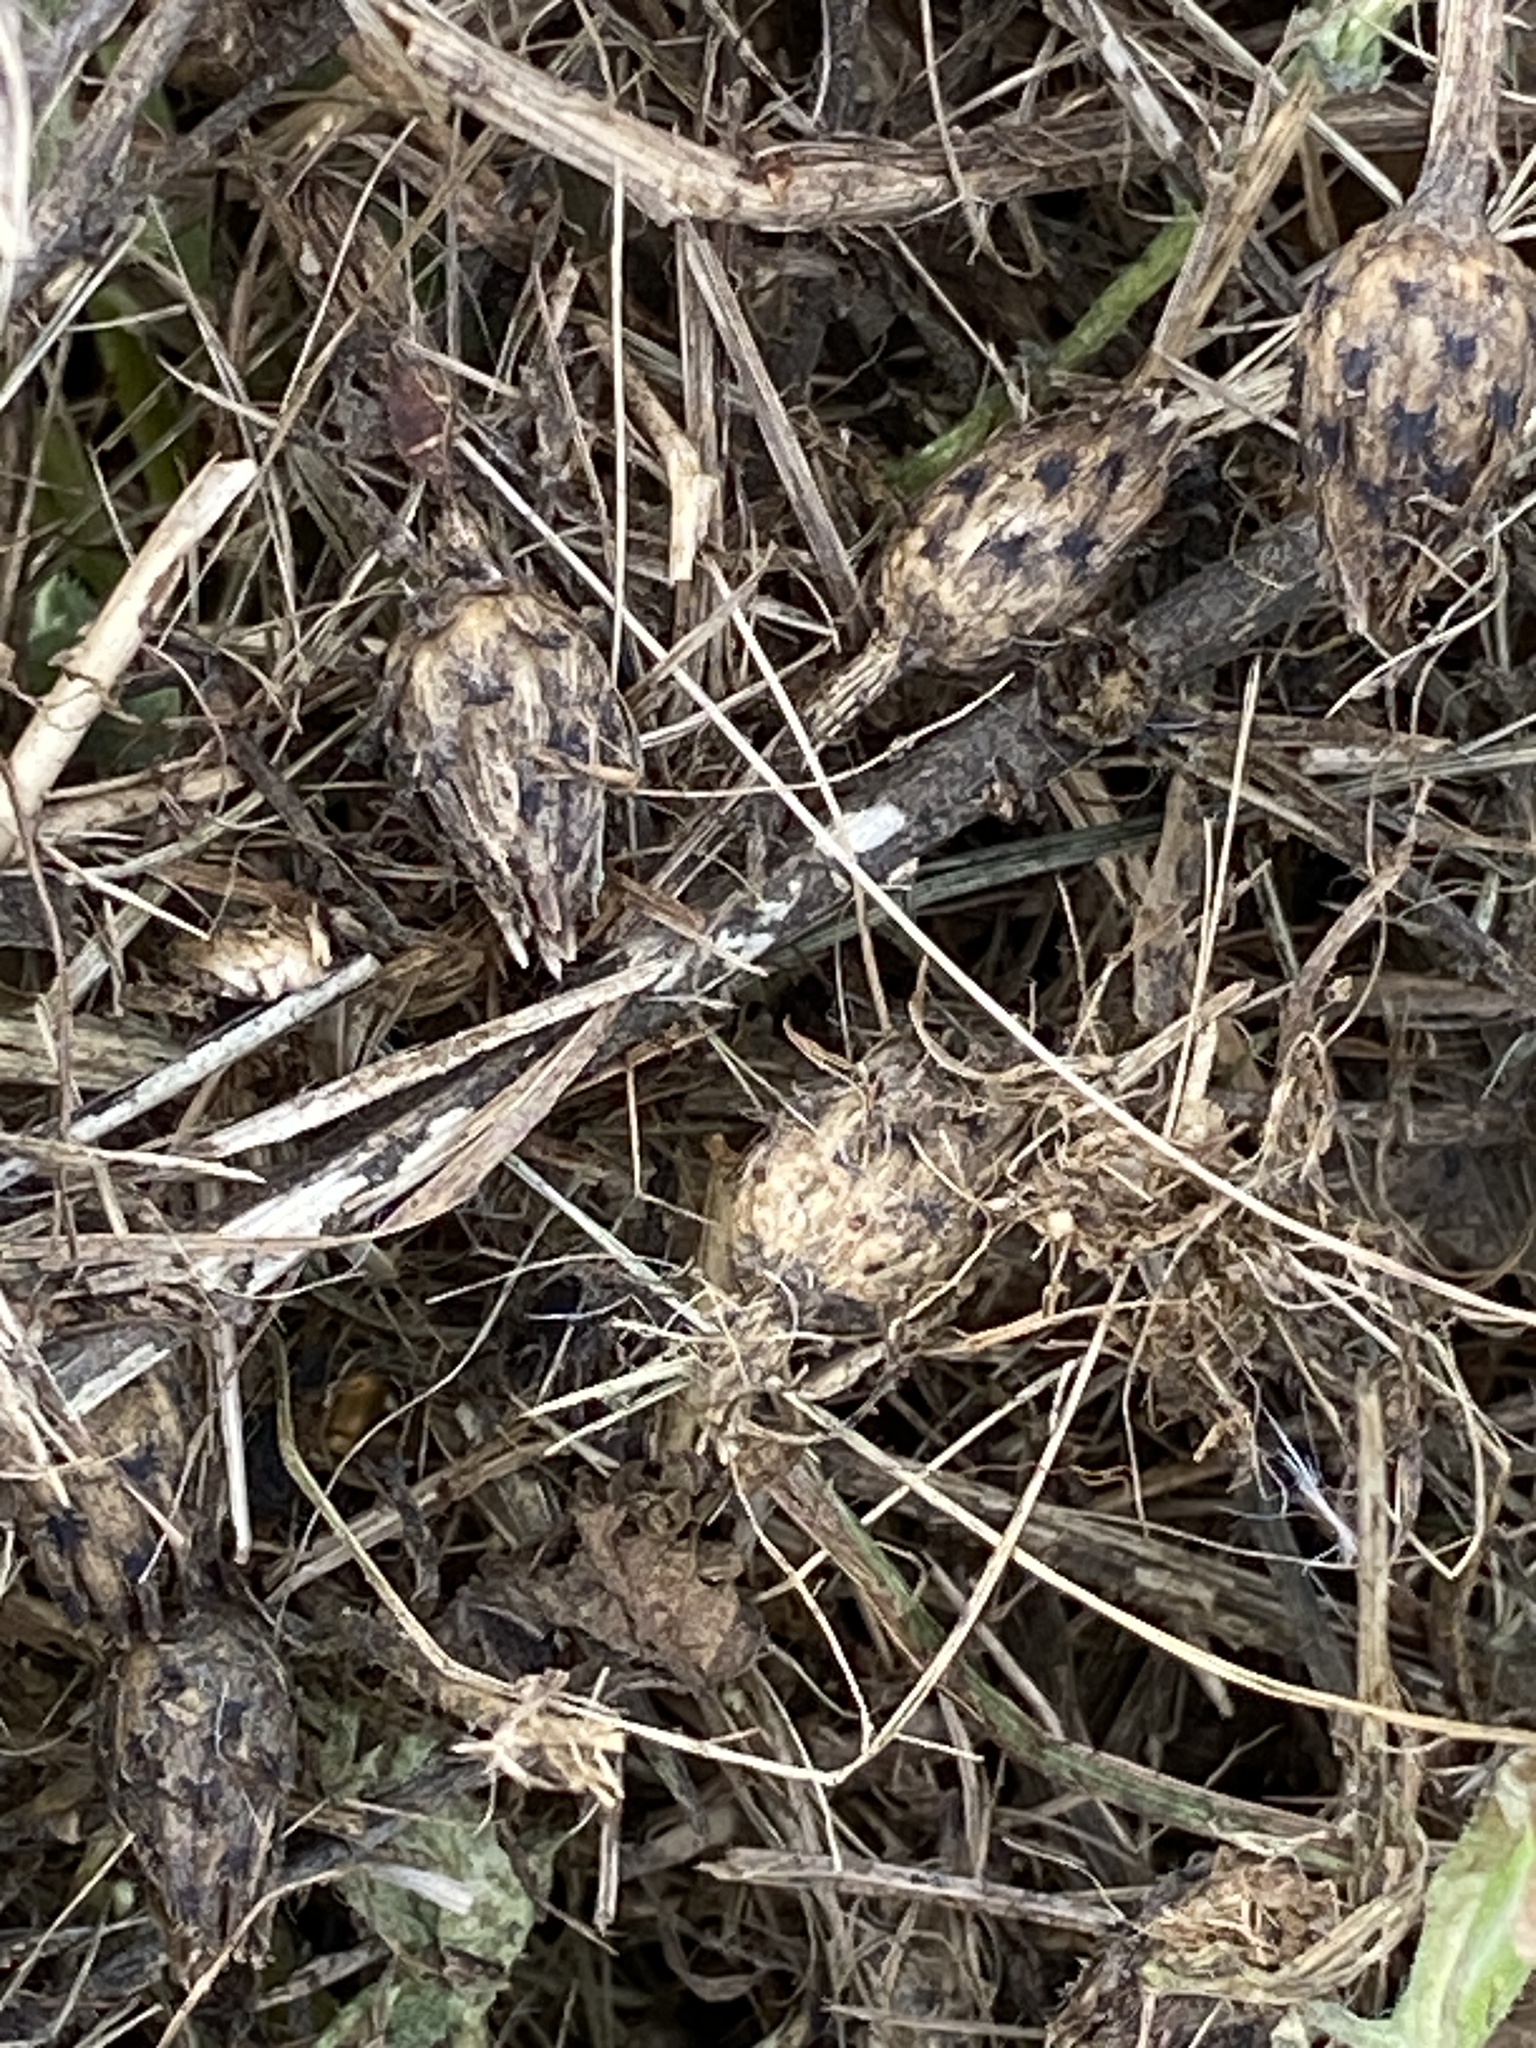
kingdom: Plantae
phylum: Tracheophyta
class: Magnoliopsida
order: Asterales
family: Asteraceae
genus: Centaurea
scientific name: Centaurea stoebe
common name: Spotted knapweed
